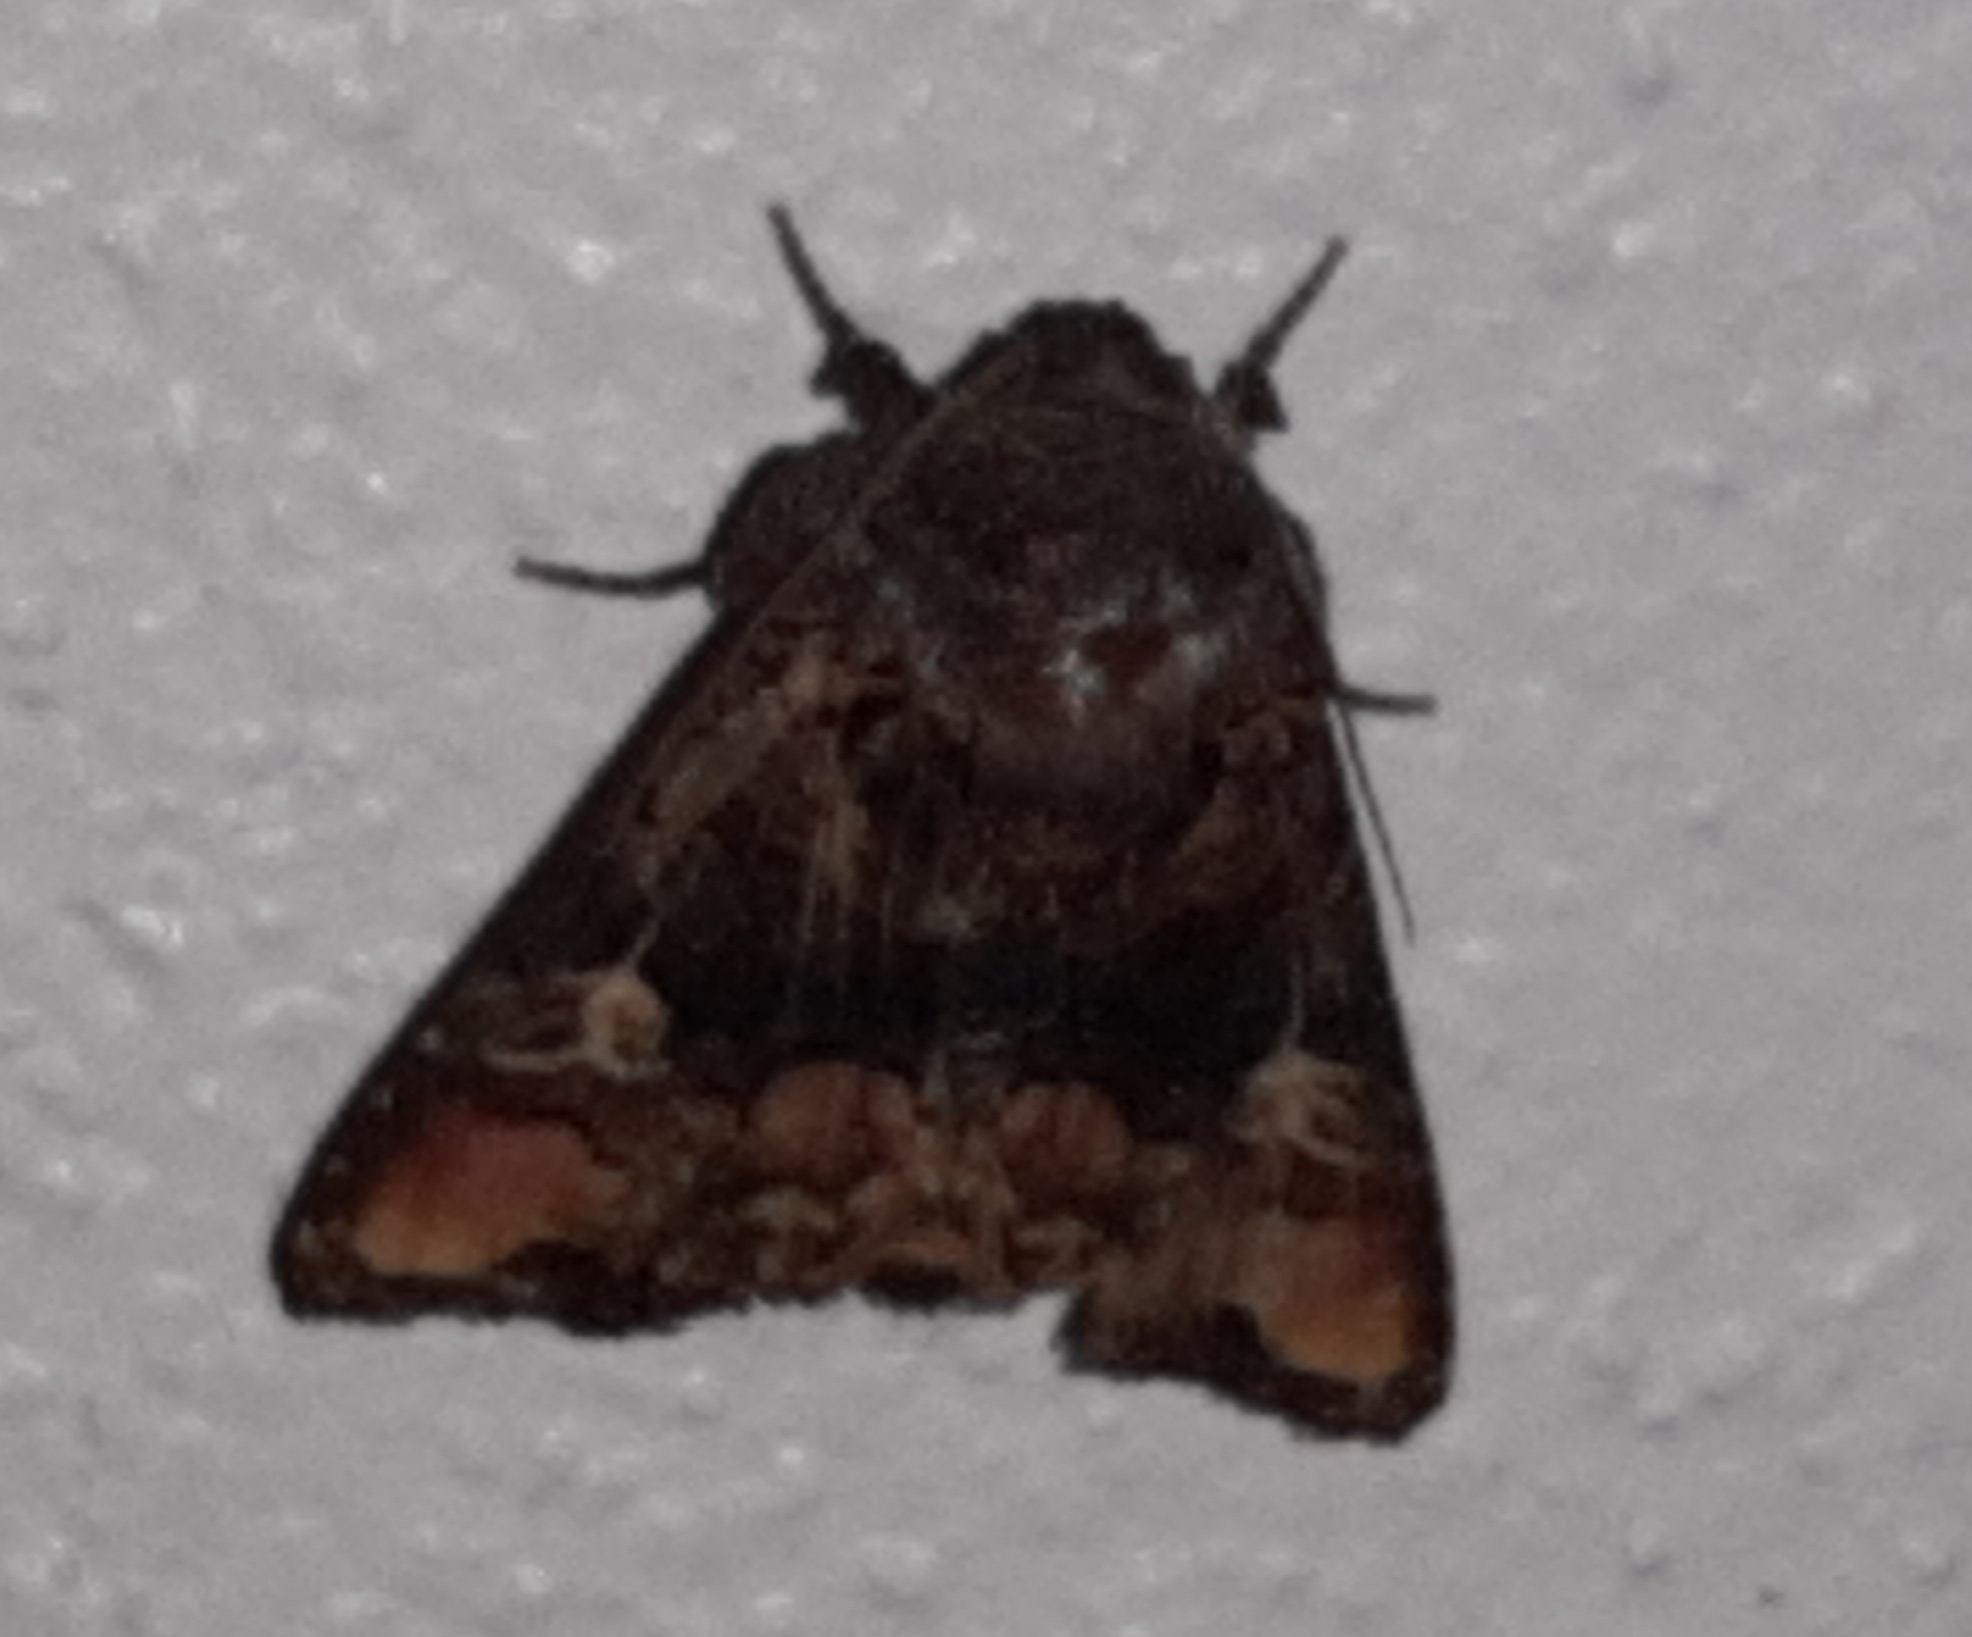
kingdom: Animalia
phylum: Arthropoda
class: Insecta
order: Lepidoptera
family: Noctuidae
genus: Euplexia
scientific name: Euplexia triplaga
